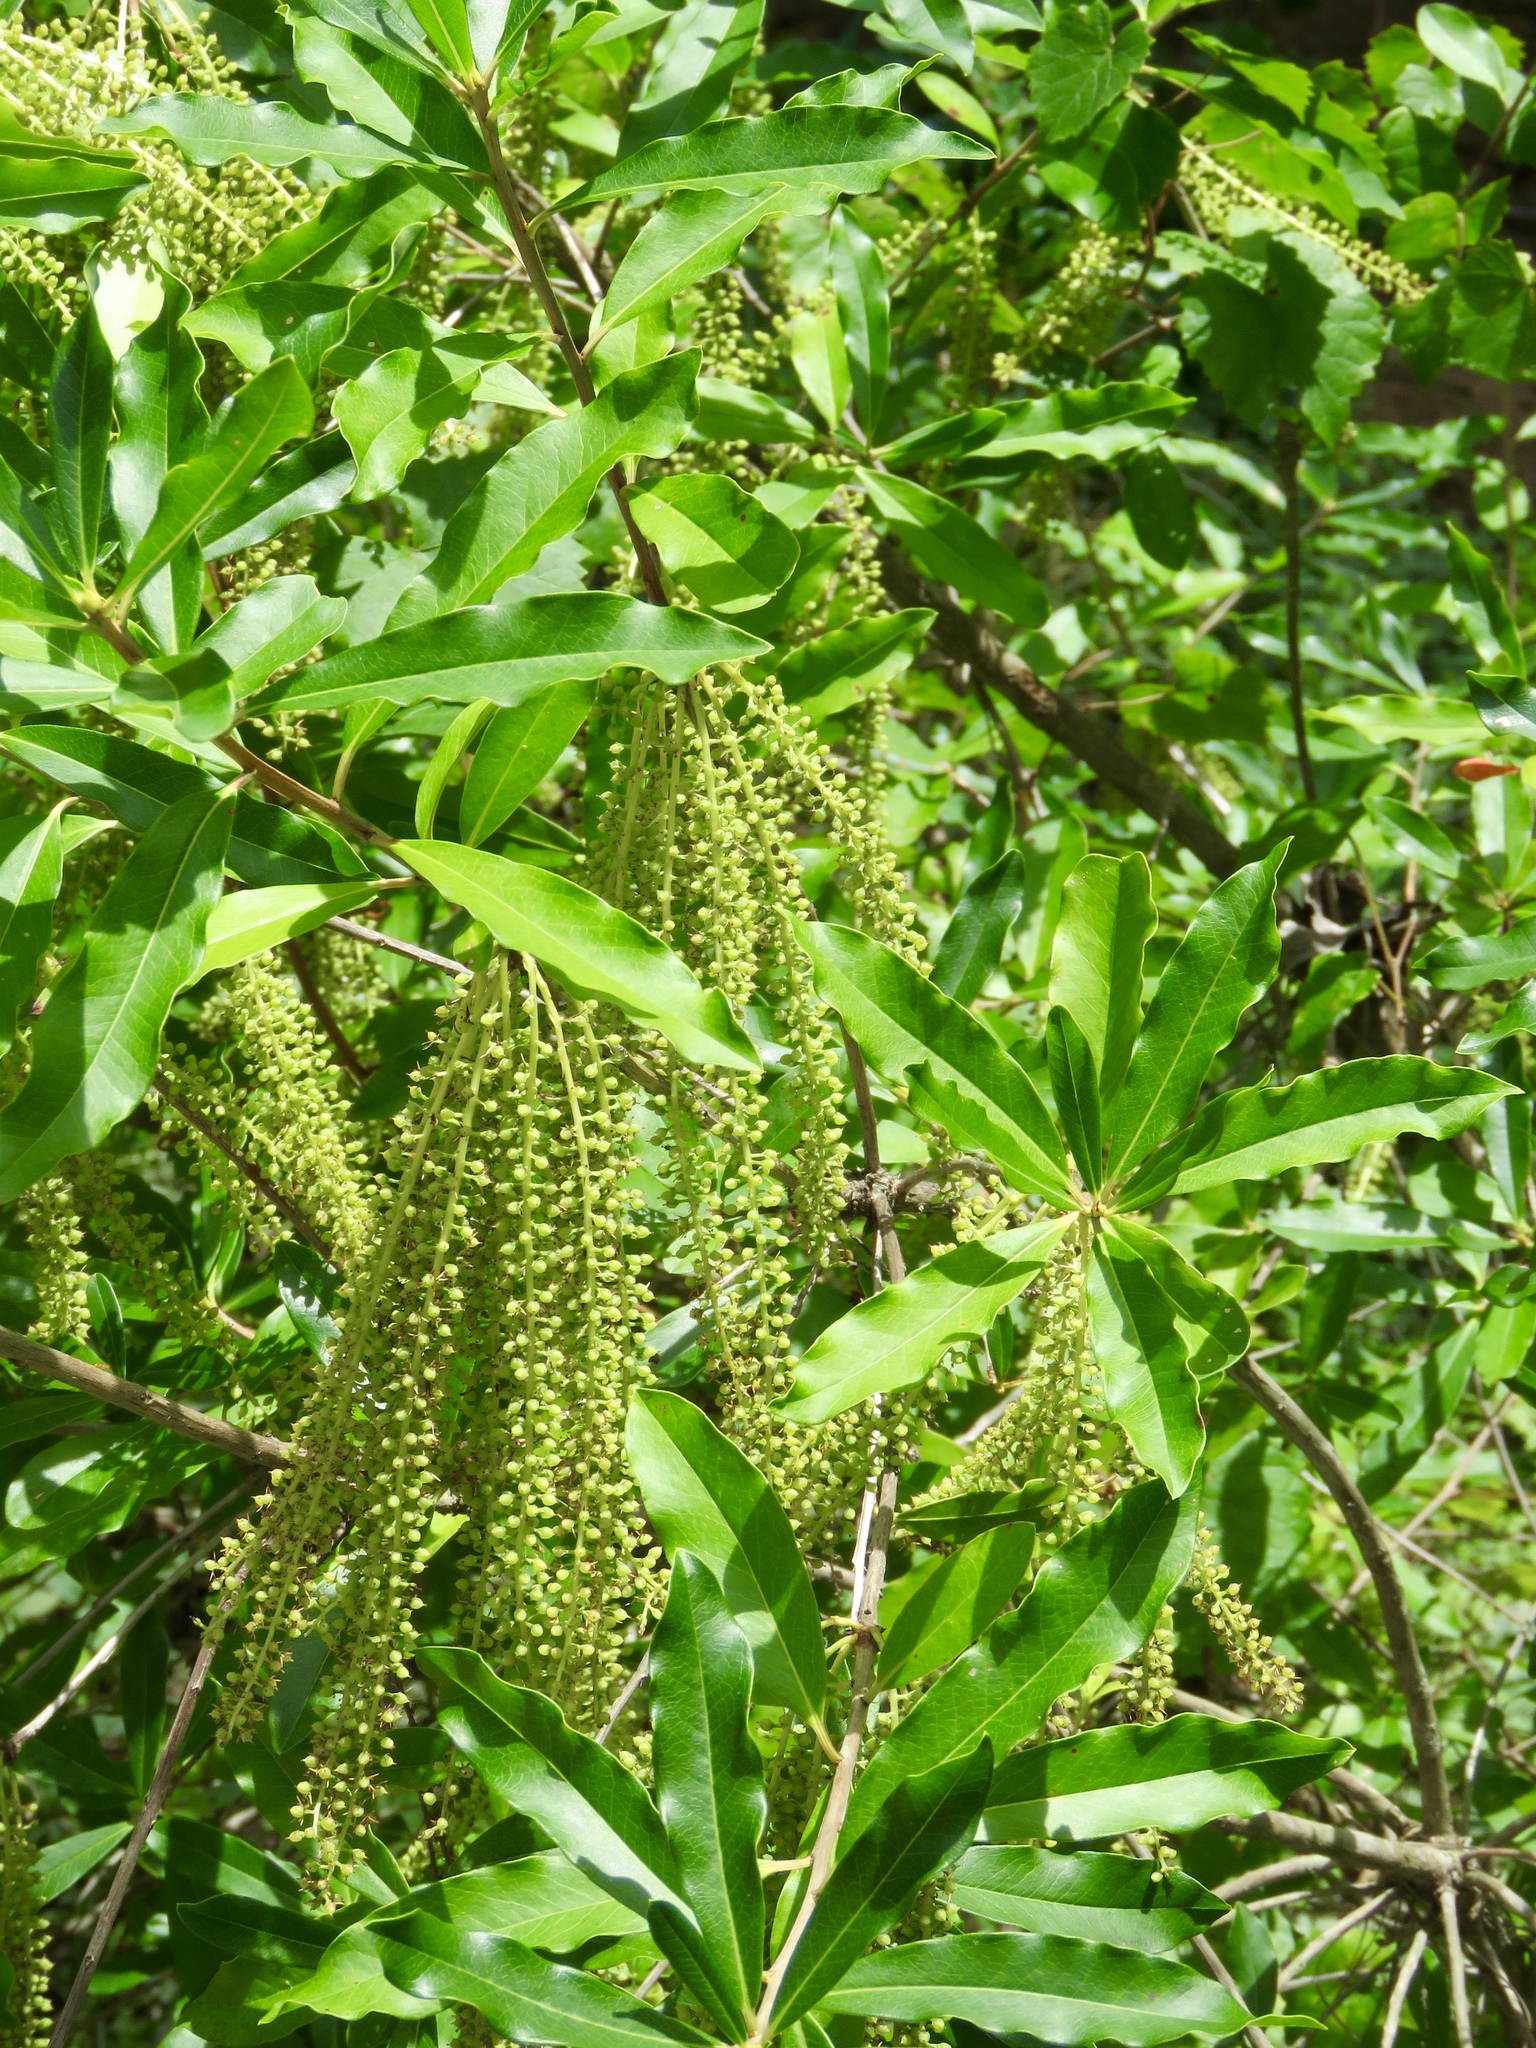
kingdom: Plantae
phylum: Tracheophyta
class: Magnoliopsida
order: Ericales
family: Cyrillaceae
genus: Cyrilla
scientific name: Cyrilla racemiflora
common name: Black titi
